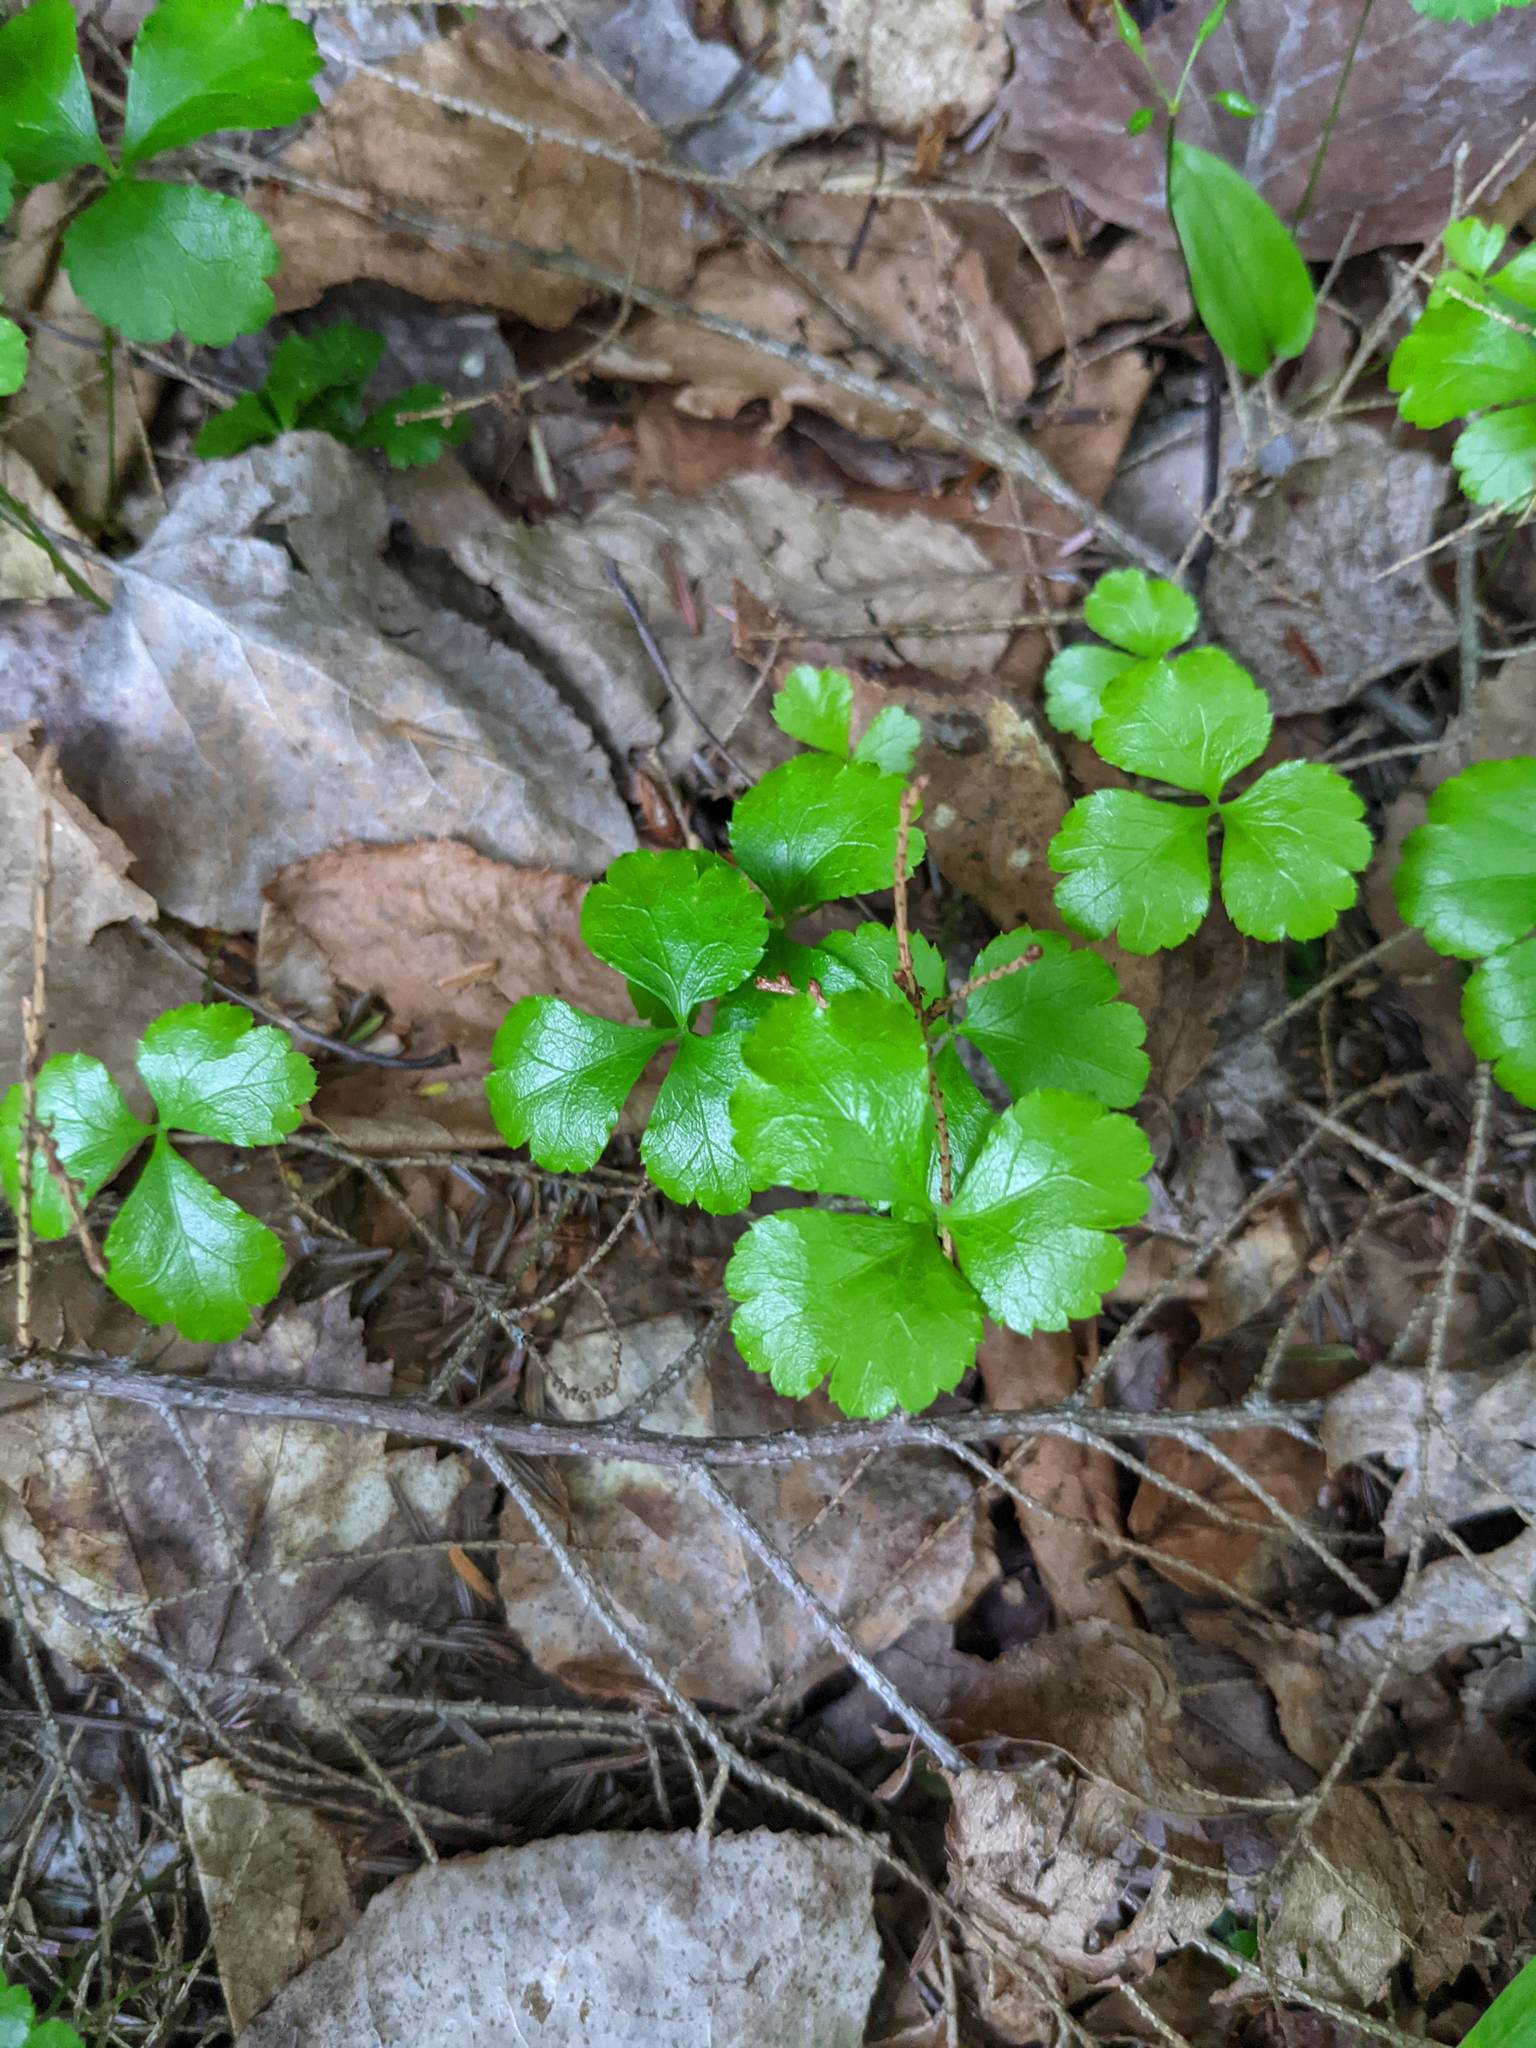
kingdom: Plantae
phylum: Tracheophyta
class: Magnoliopsida
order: Ranunculales
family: Ranunculaceae
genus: Coptis
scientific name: Coptis trifolia
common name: Canker-root
